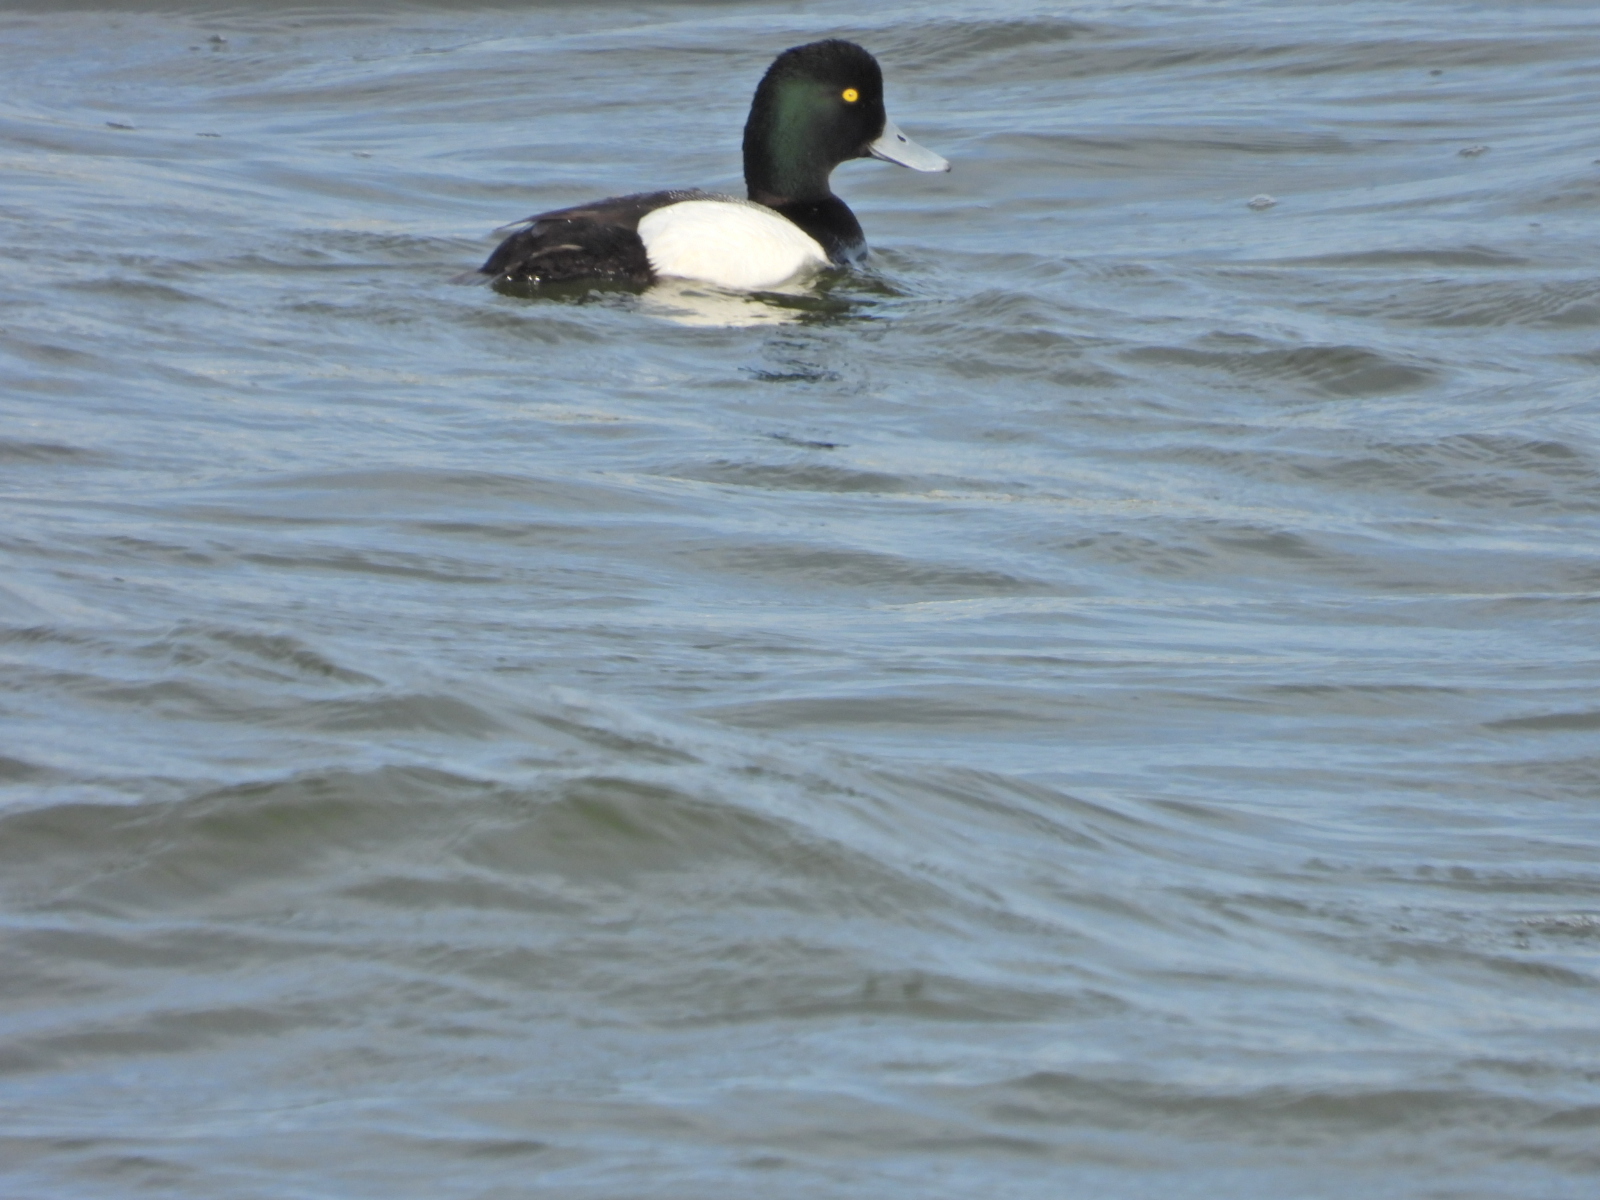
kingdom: Animalia
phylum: Chordata
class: Aves
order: Anseriformes
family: Anatidae
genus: Aythya
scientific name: Aythya marila
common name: Greater scaup
